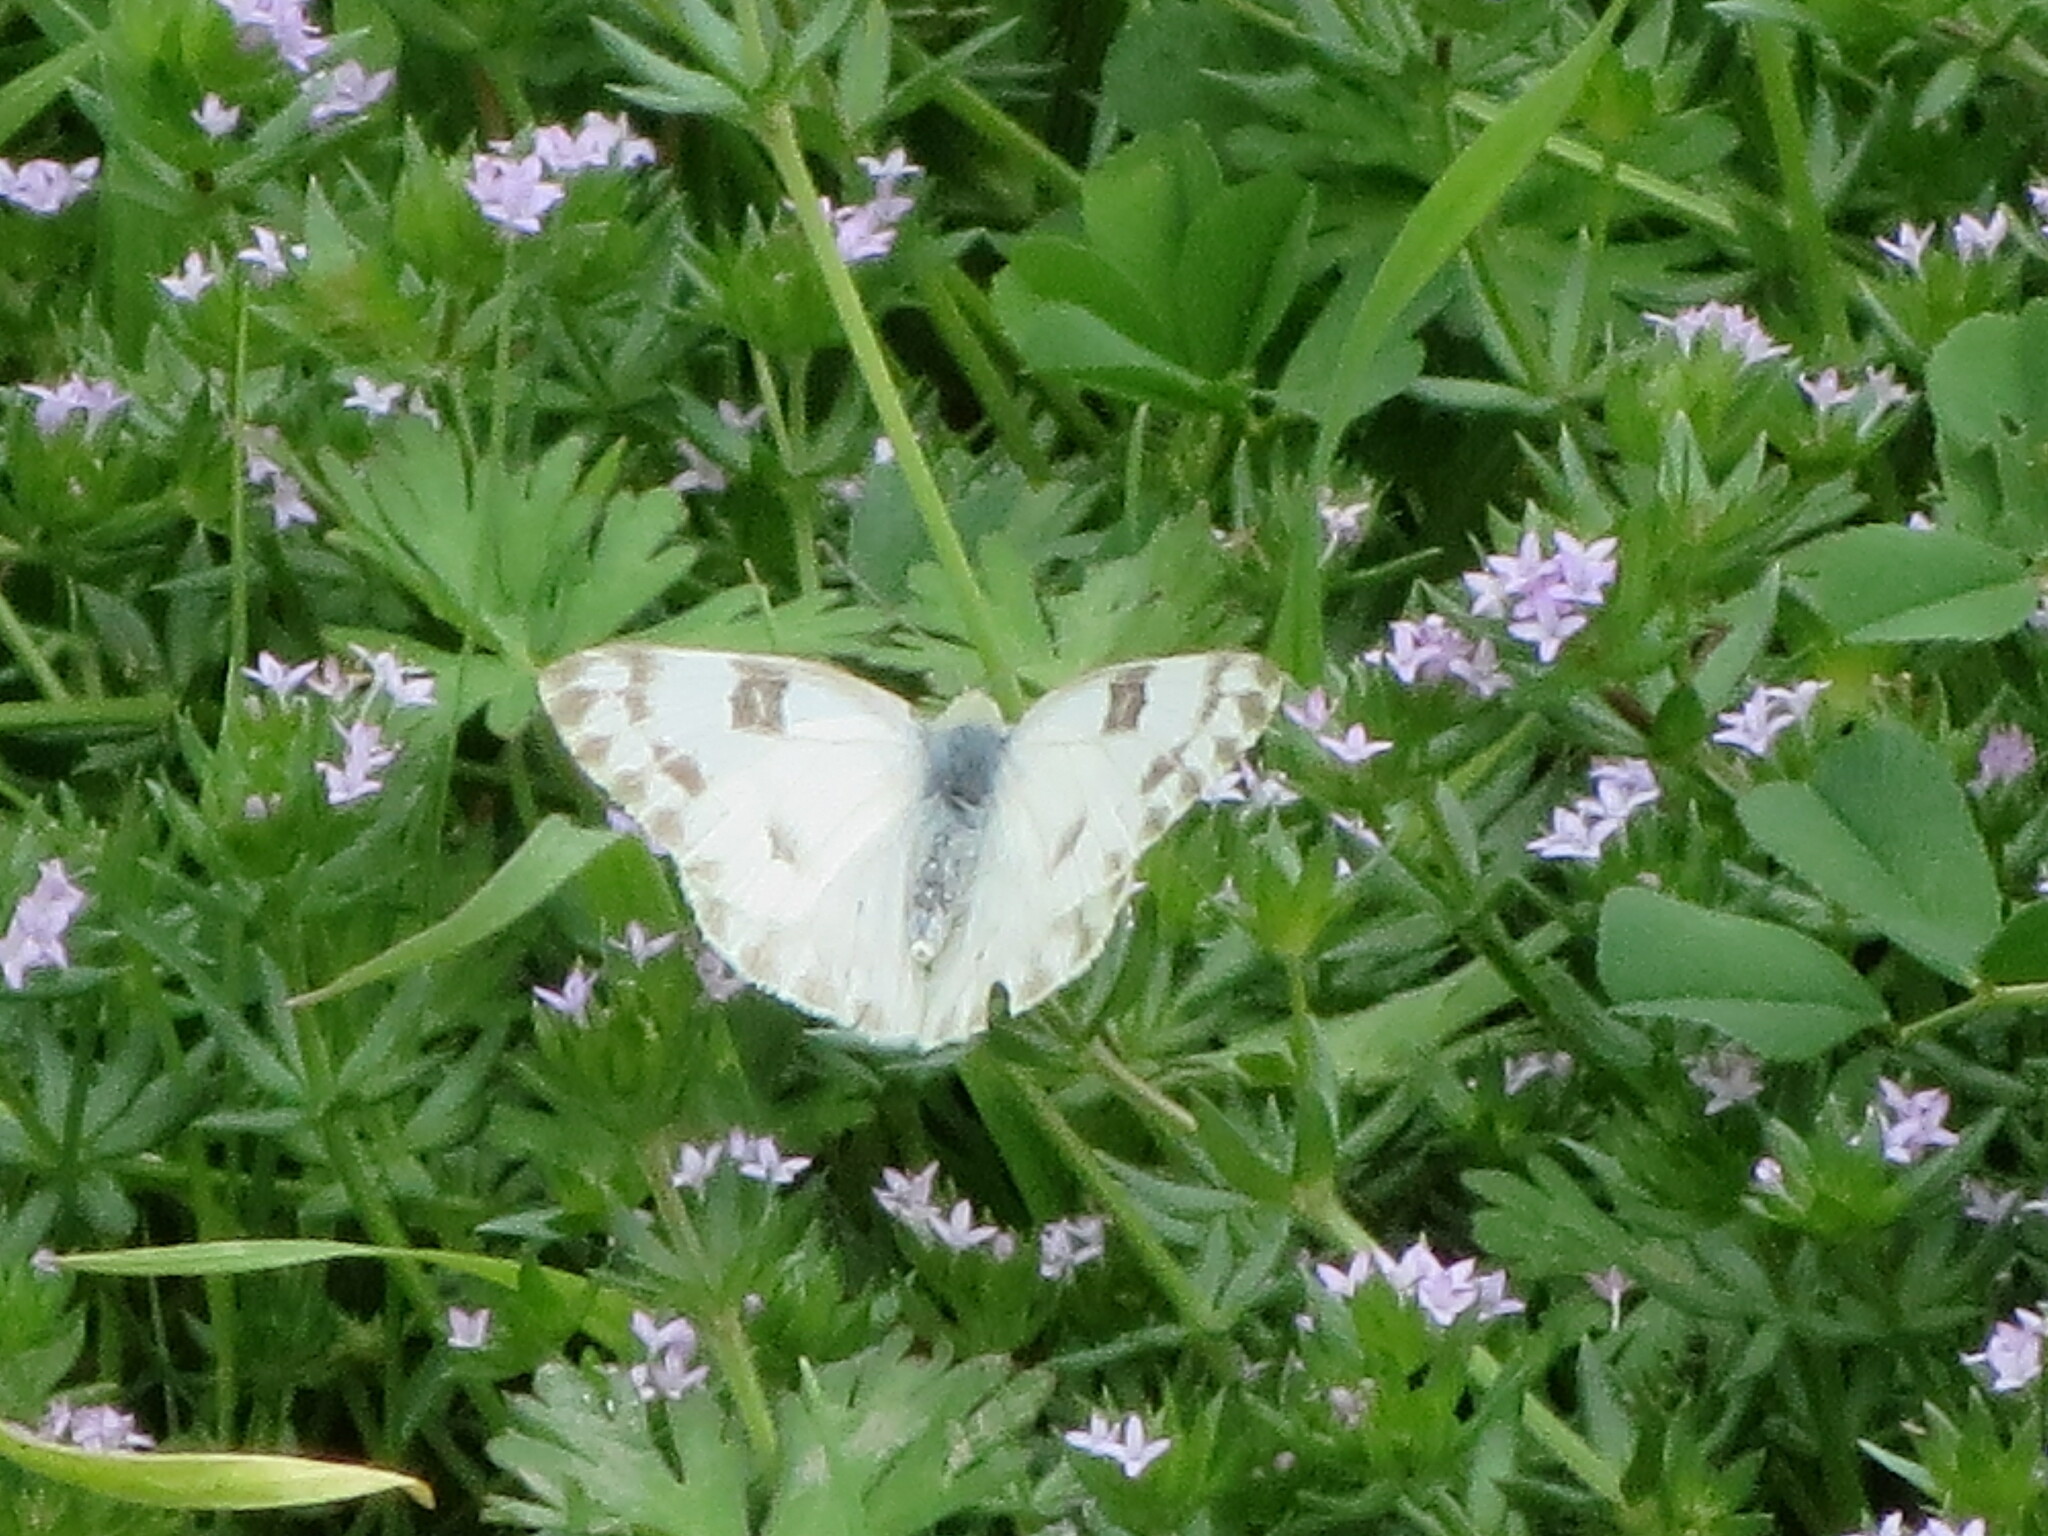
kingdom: Animalia
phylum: Arthropoda
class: Insecta
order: Lepidoptera
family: Pieridae
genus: Pontia
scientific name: Pontia protodice
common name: Checkered white
